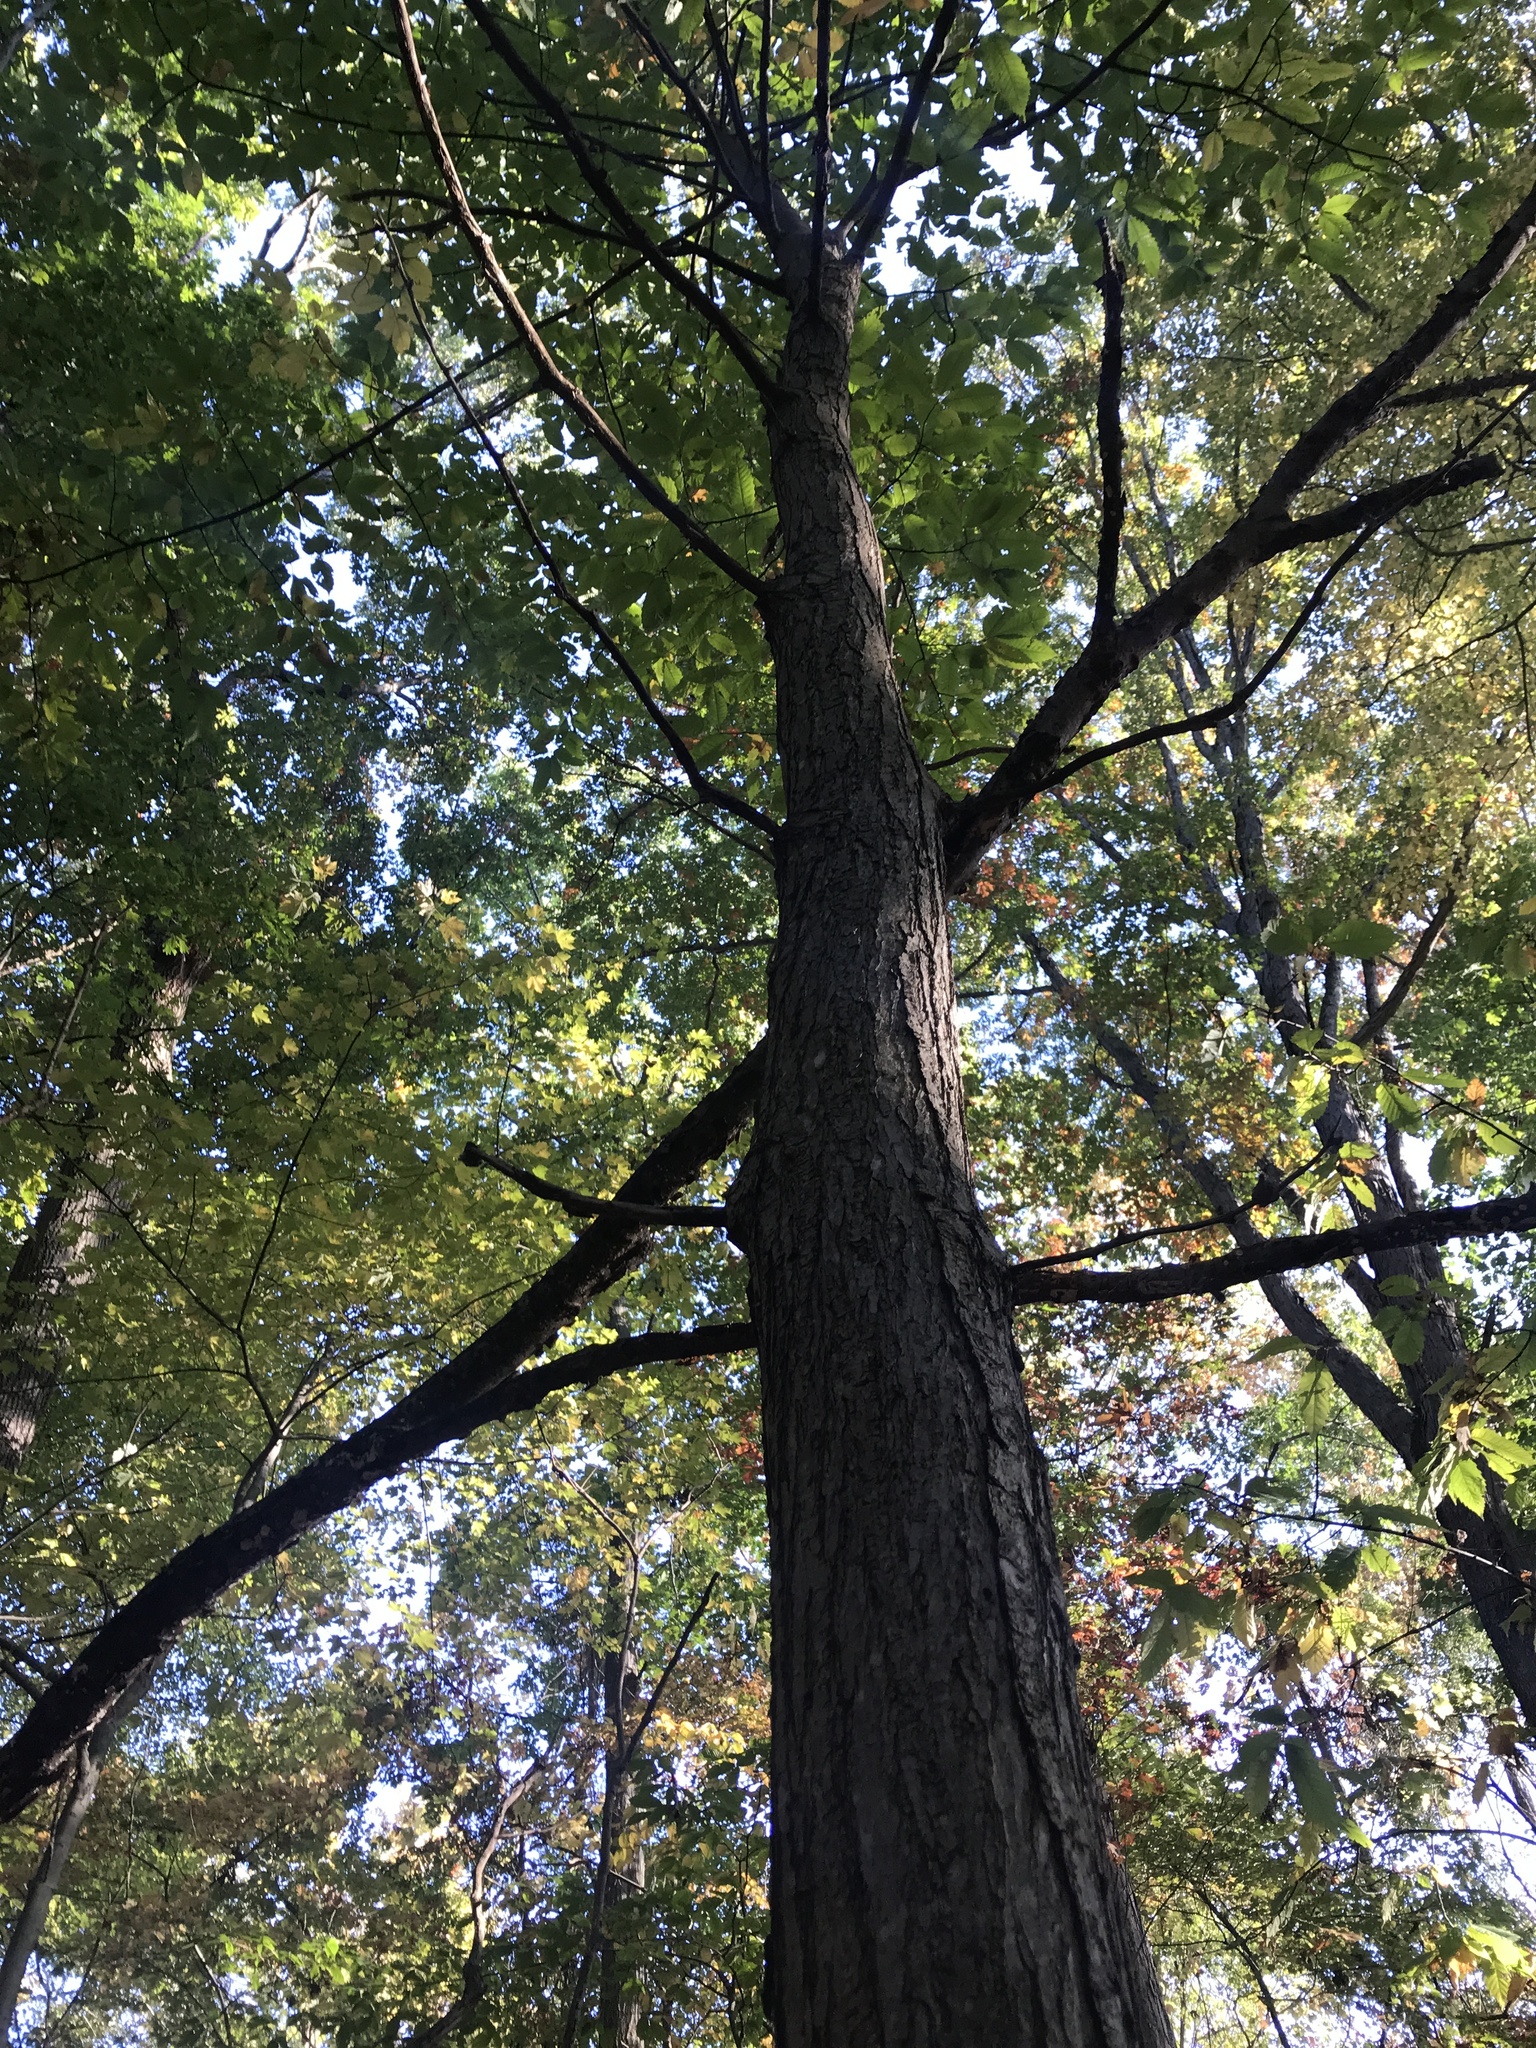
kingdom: Plantae
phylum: Tracheophyta
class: Magnoliopsida
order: Fagales
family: Fagaceae
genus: Castanea
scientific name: Castanea dentata
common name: American chestnut
